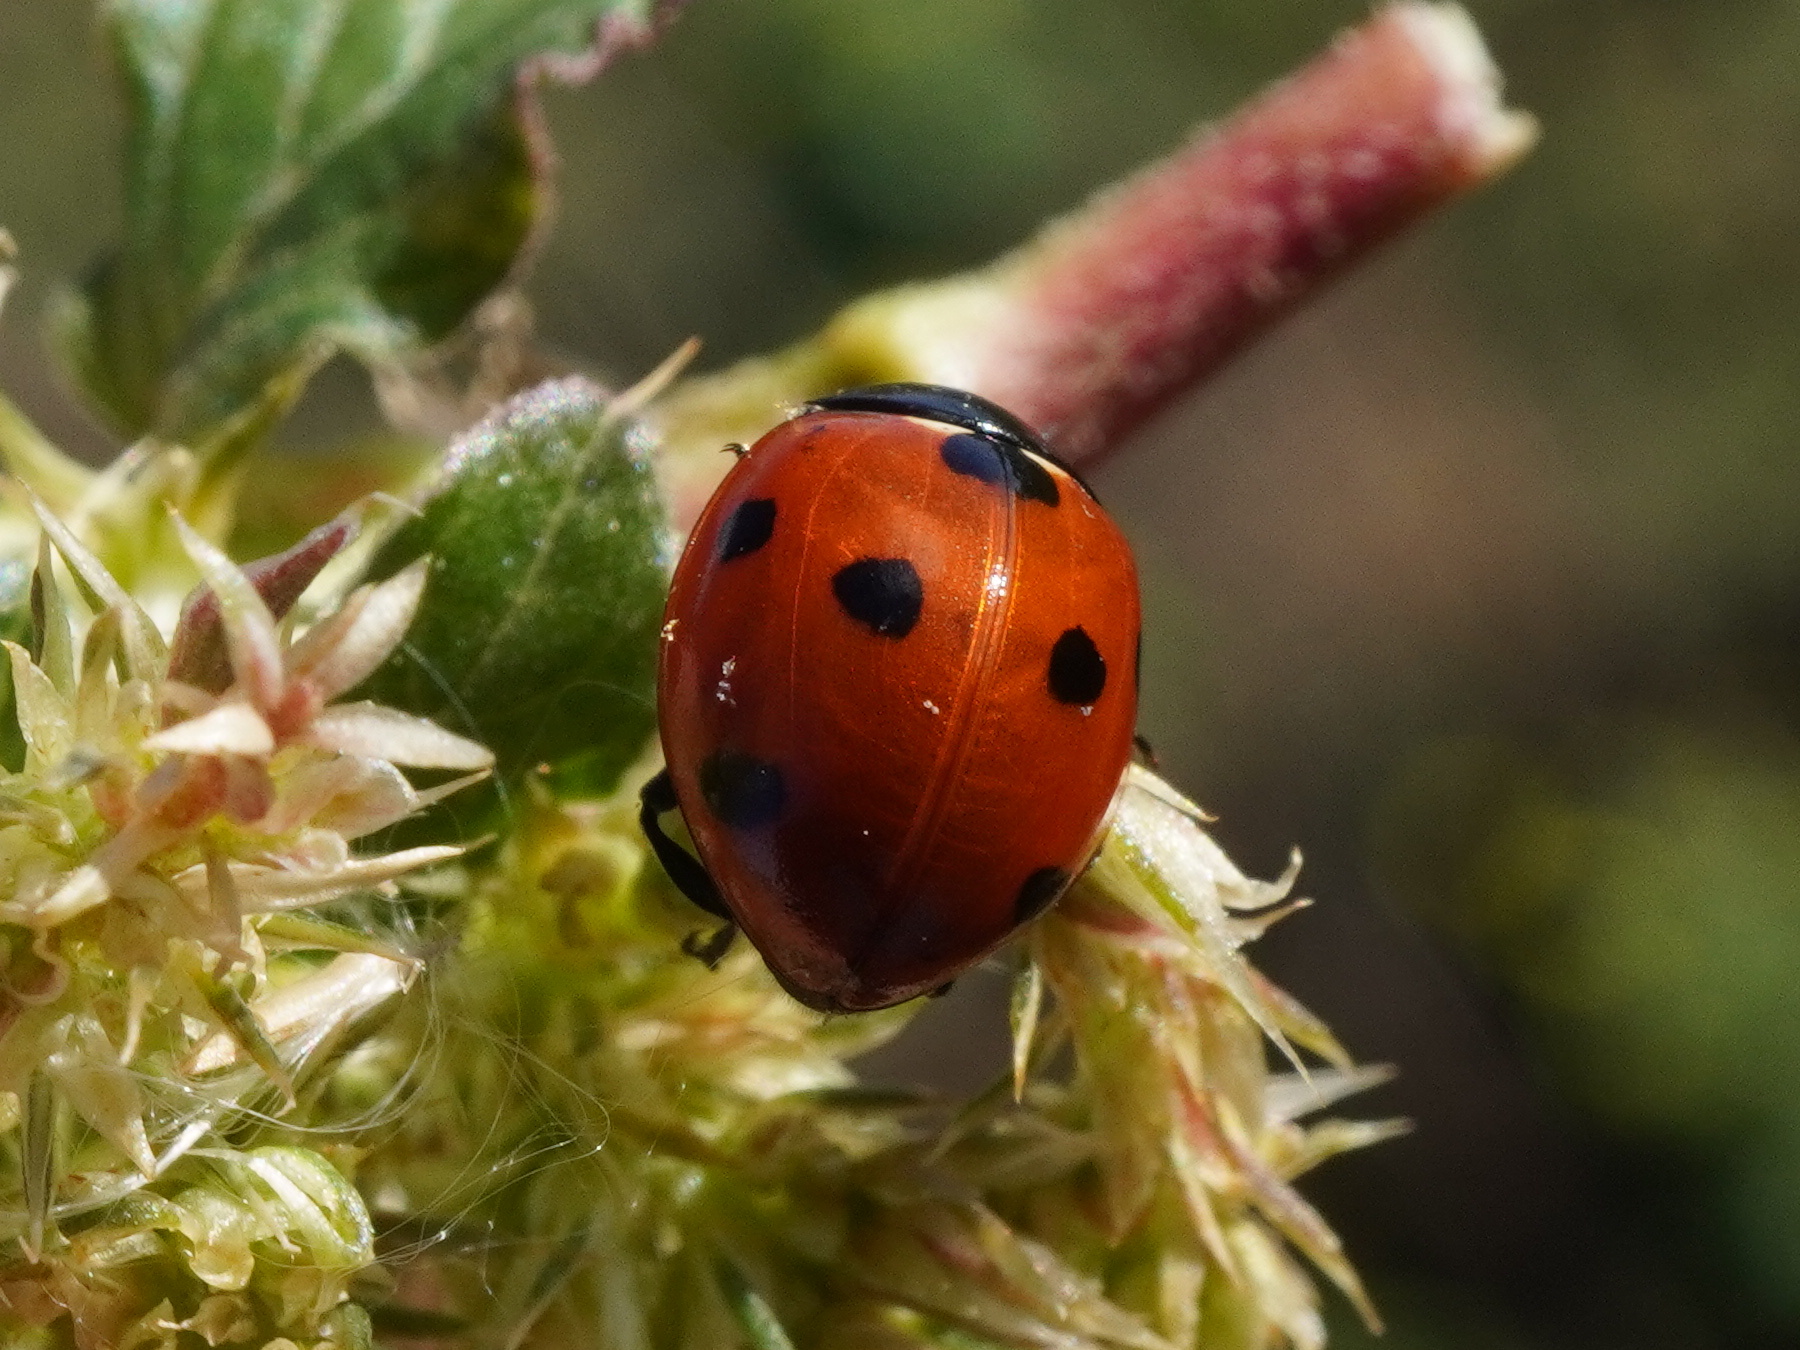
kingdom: Animalia
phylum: Arthropoda
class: Insecta
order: Coleoptera
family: Coccinellidae
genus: Coccinella
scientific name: Coccinella septempunctata
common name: Sevenspotted lady beetle
